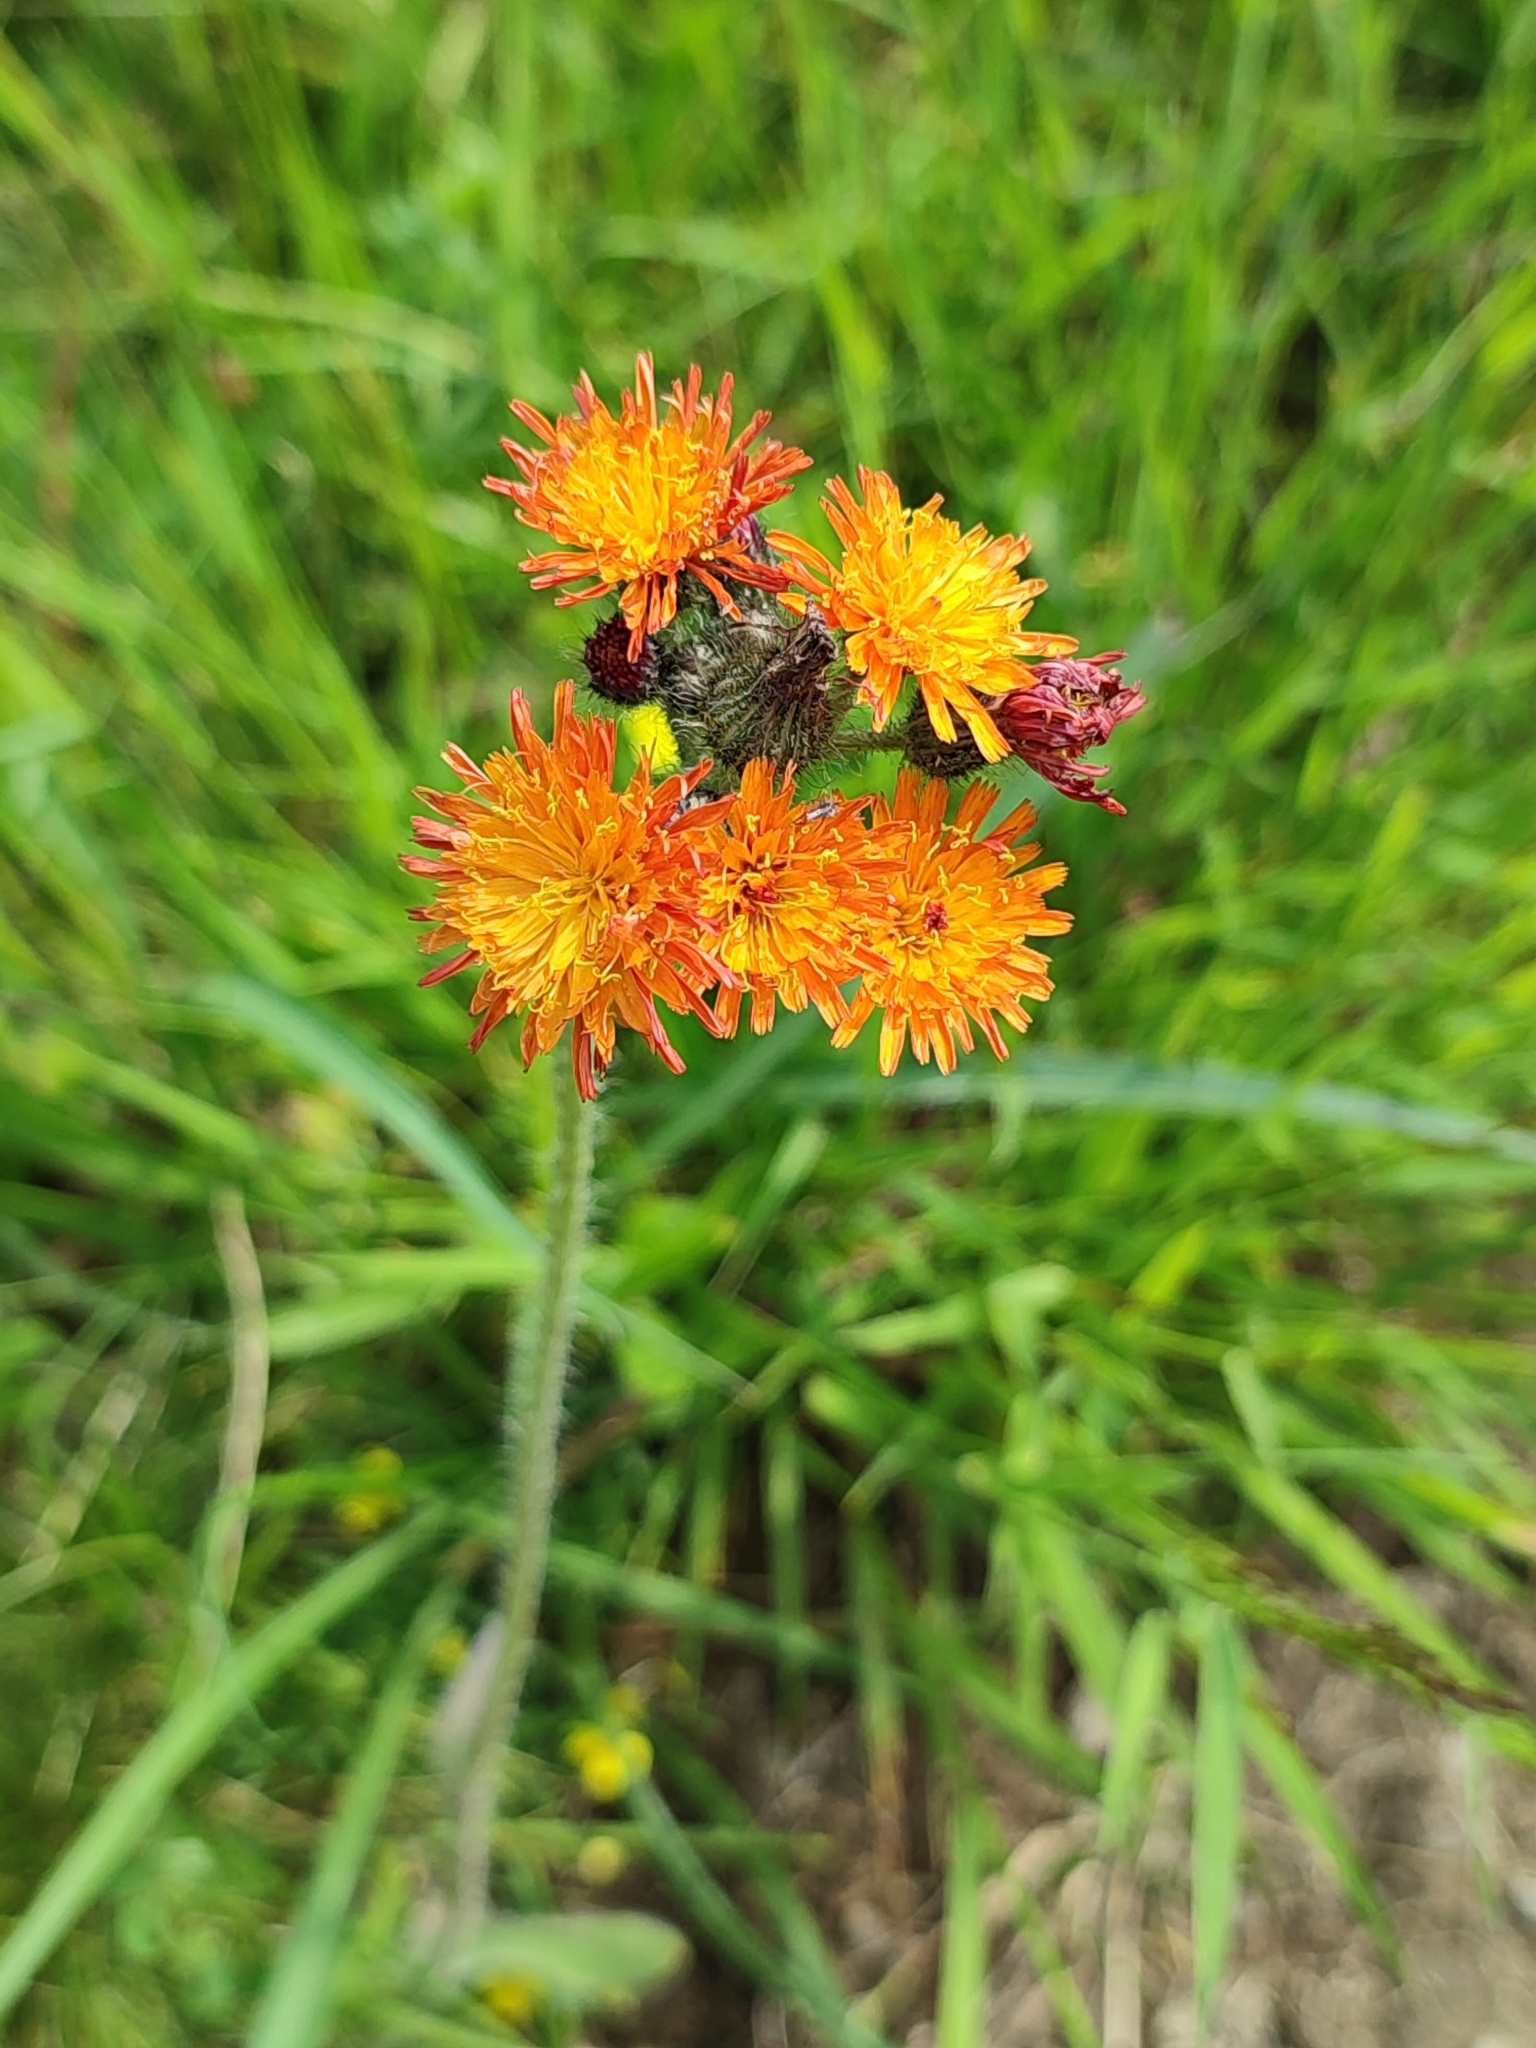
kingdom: Plantae
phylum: Tracheophyta
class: Magnoliopsida
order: Asterales
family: Asteraceae
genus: Pilosella
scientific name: Pilosella aurantiaca
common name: Fox-and-cubs
